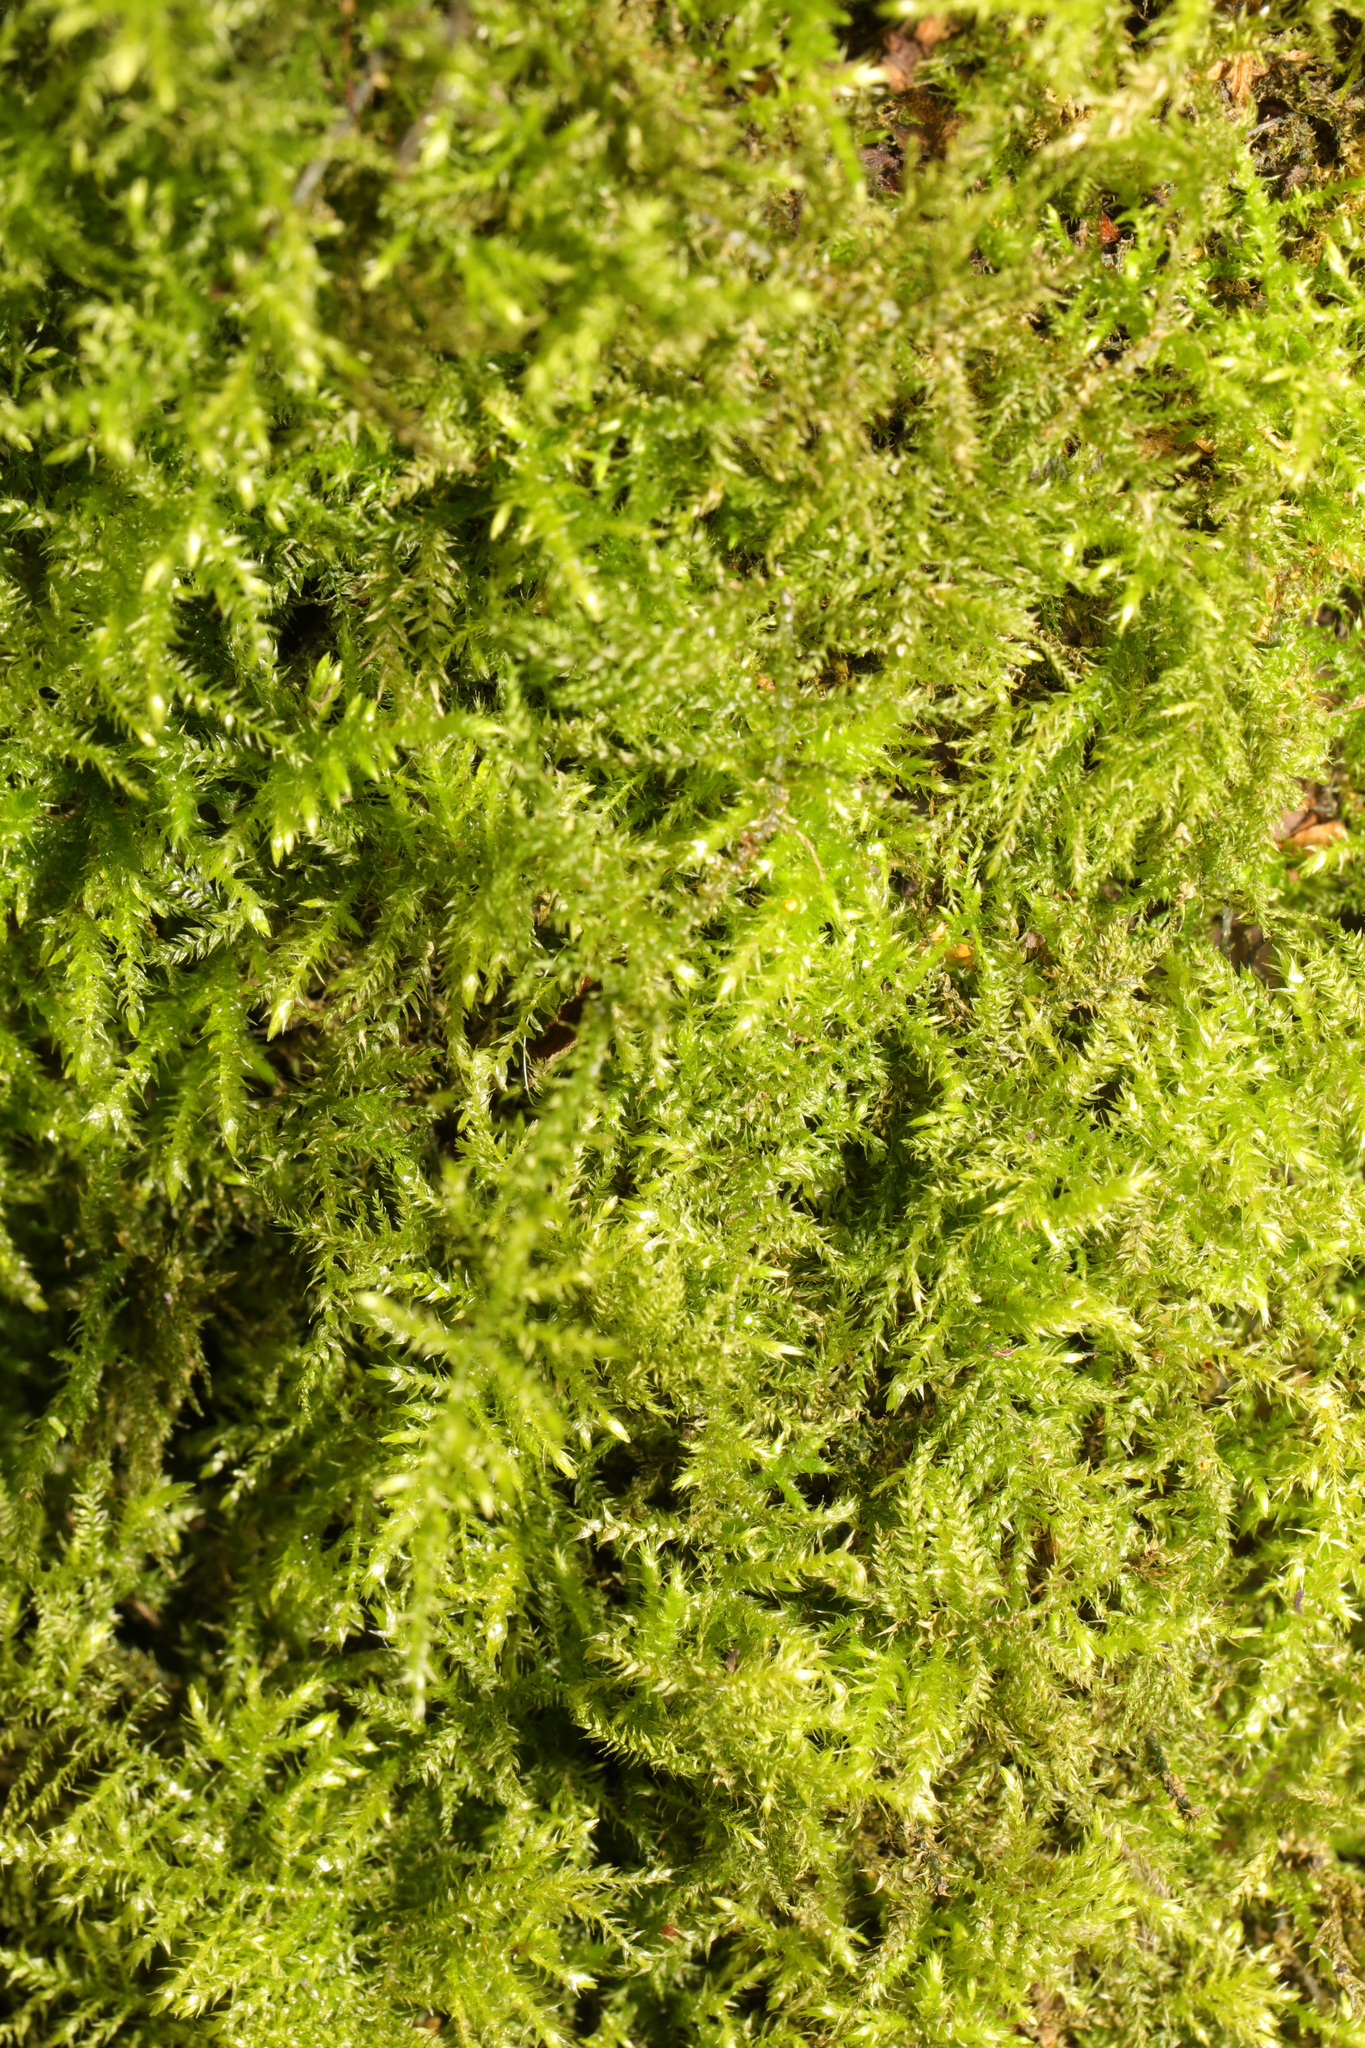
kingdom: Plantae
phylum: Bryophyta
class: Bryopsida
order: Hypnales
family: Brachytheciaceae
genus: Kindbergia
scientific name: Kindbergia praelonga
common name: Slender beaked moss
